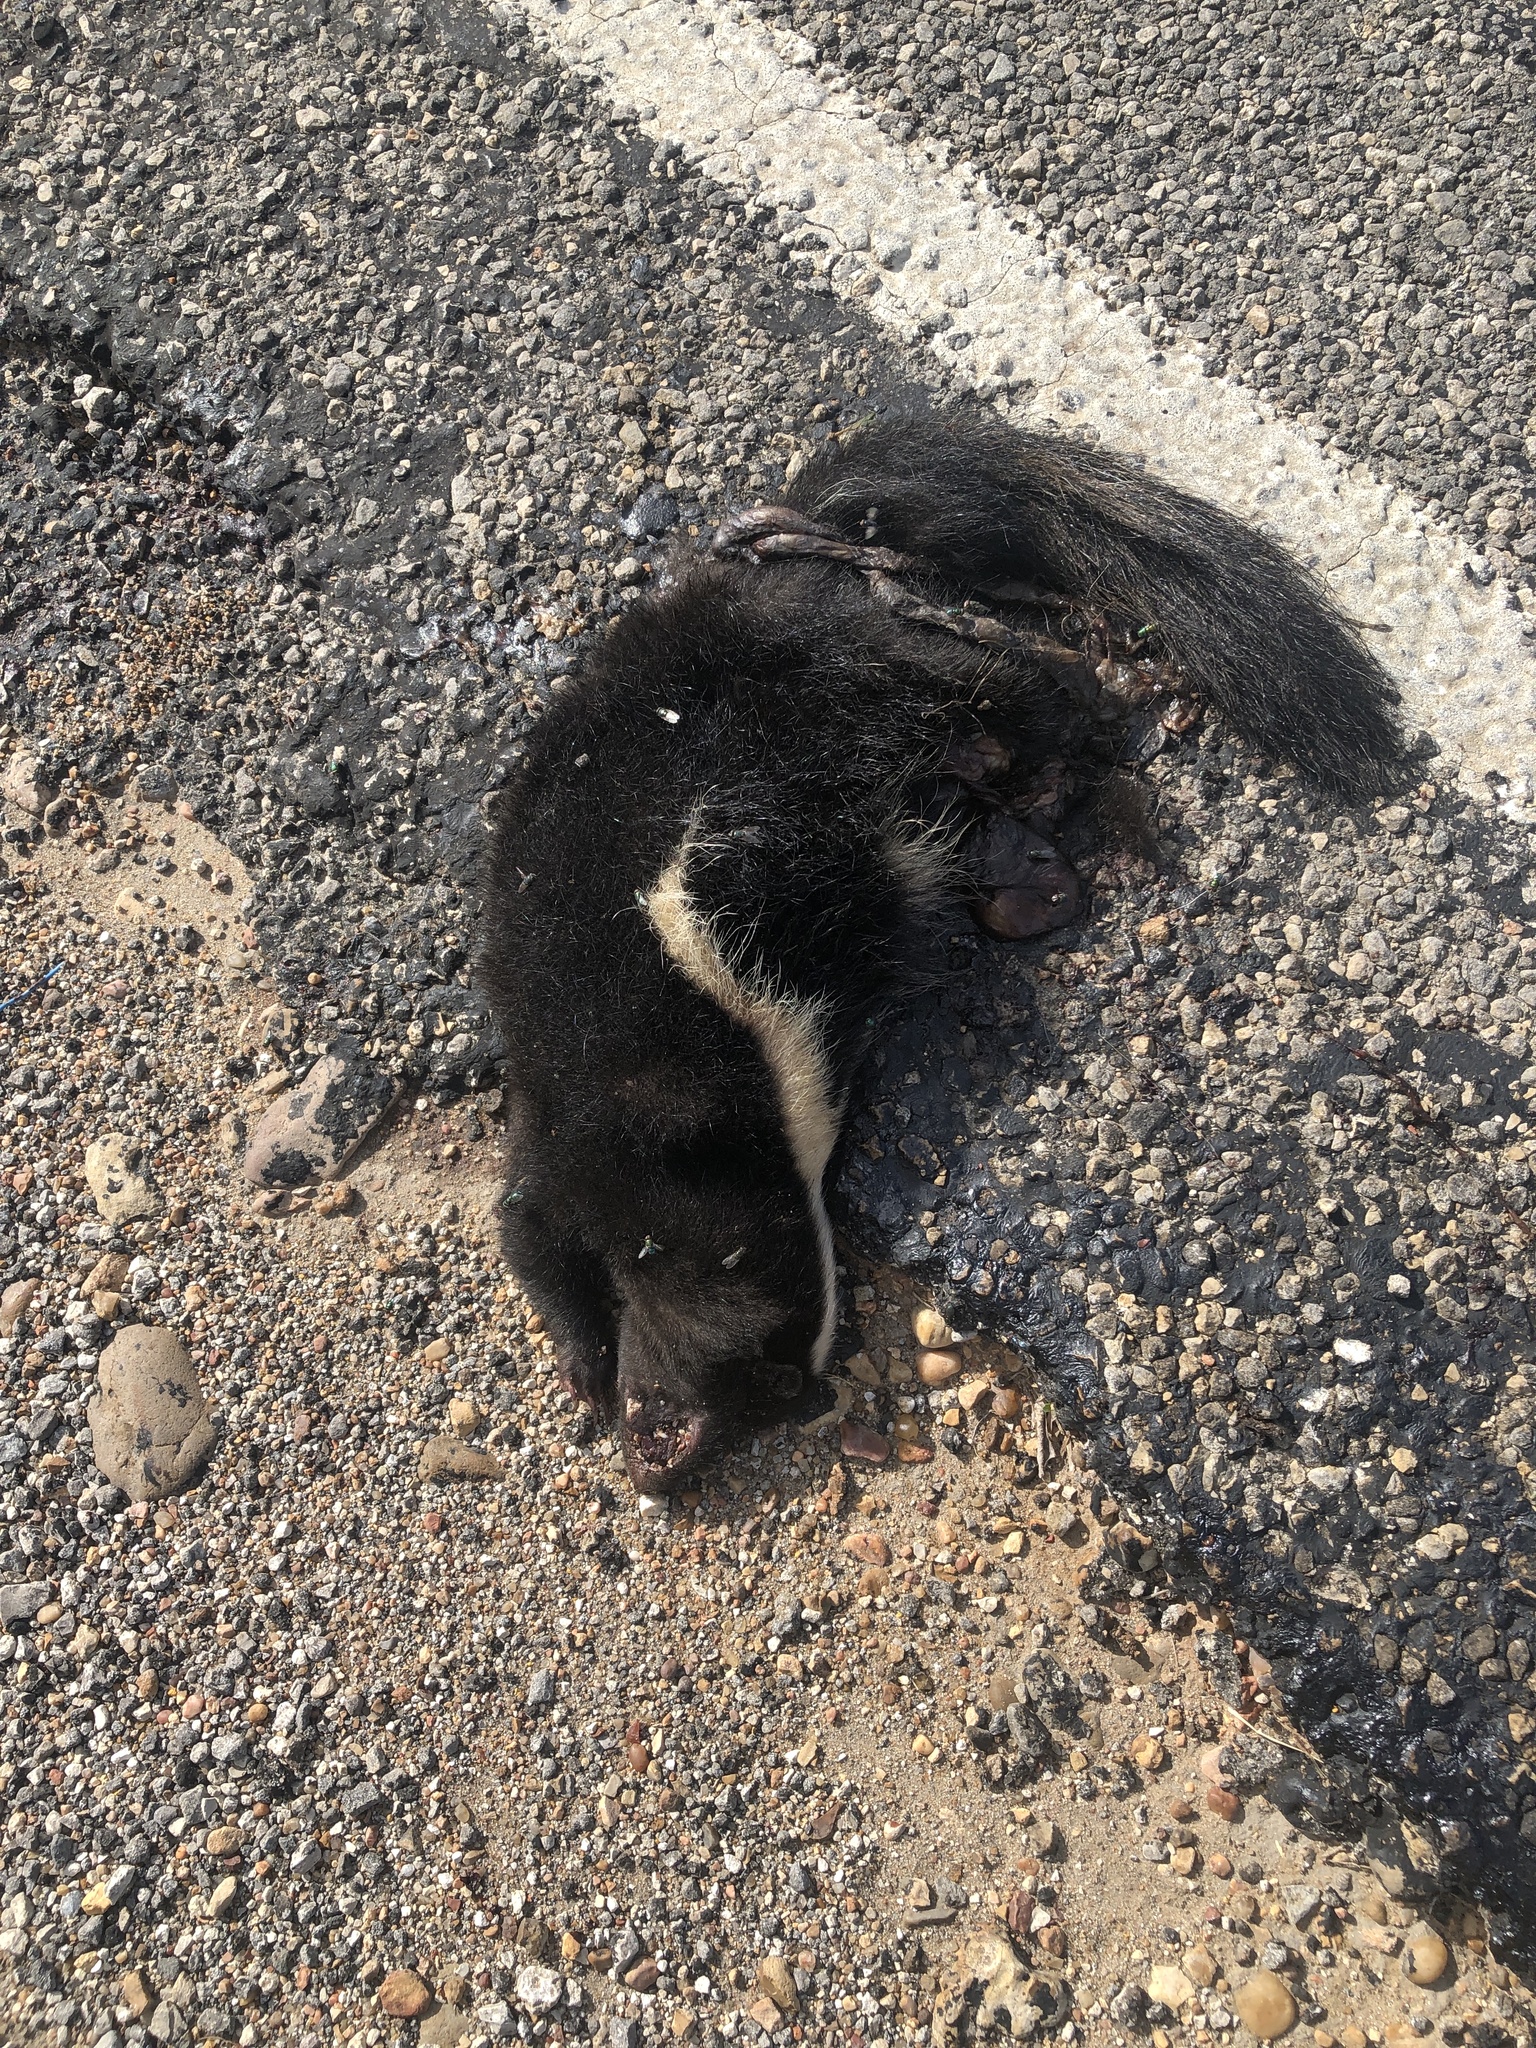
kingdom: Animalia
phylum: Chordata
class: Mammalia
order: Carnivora
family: Mephitidae
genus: Mephitis
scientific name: Mephitis mephitis
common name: Striped skunk
